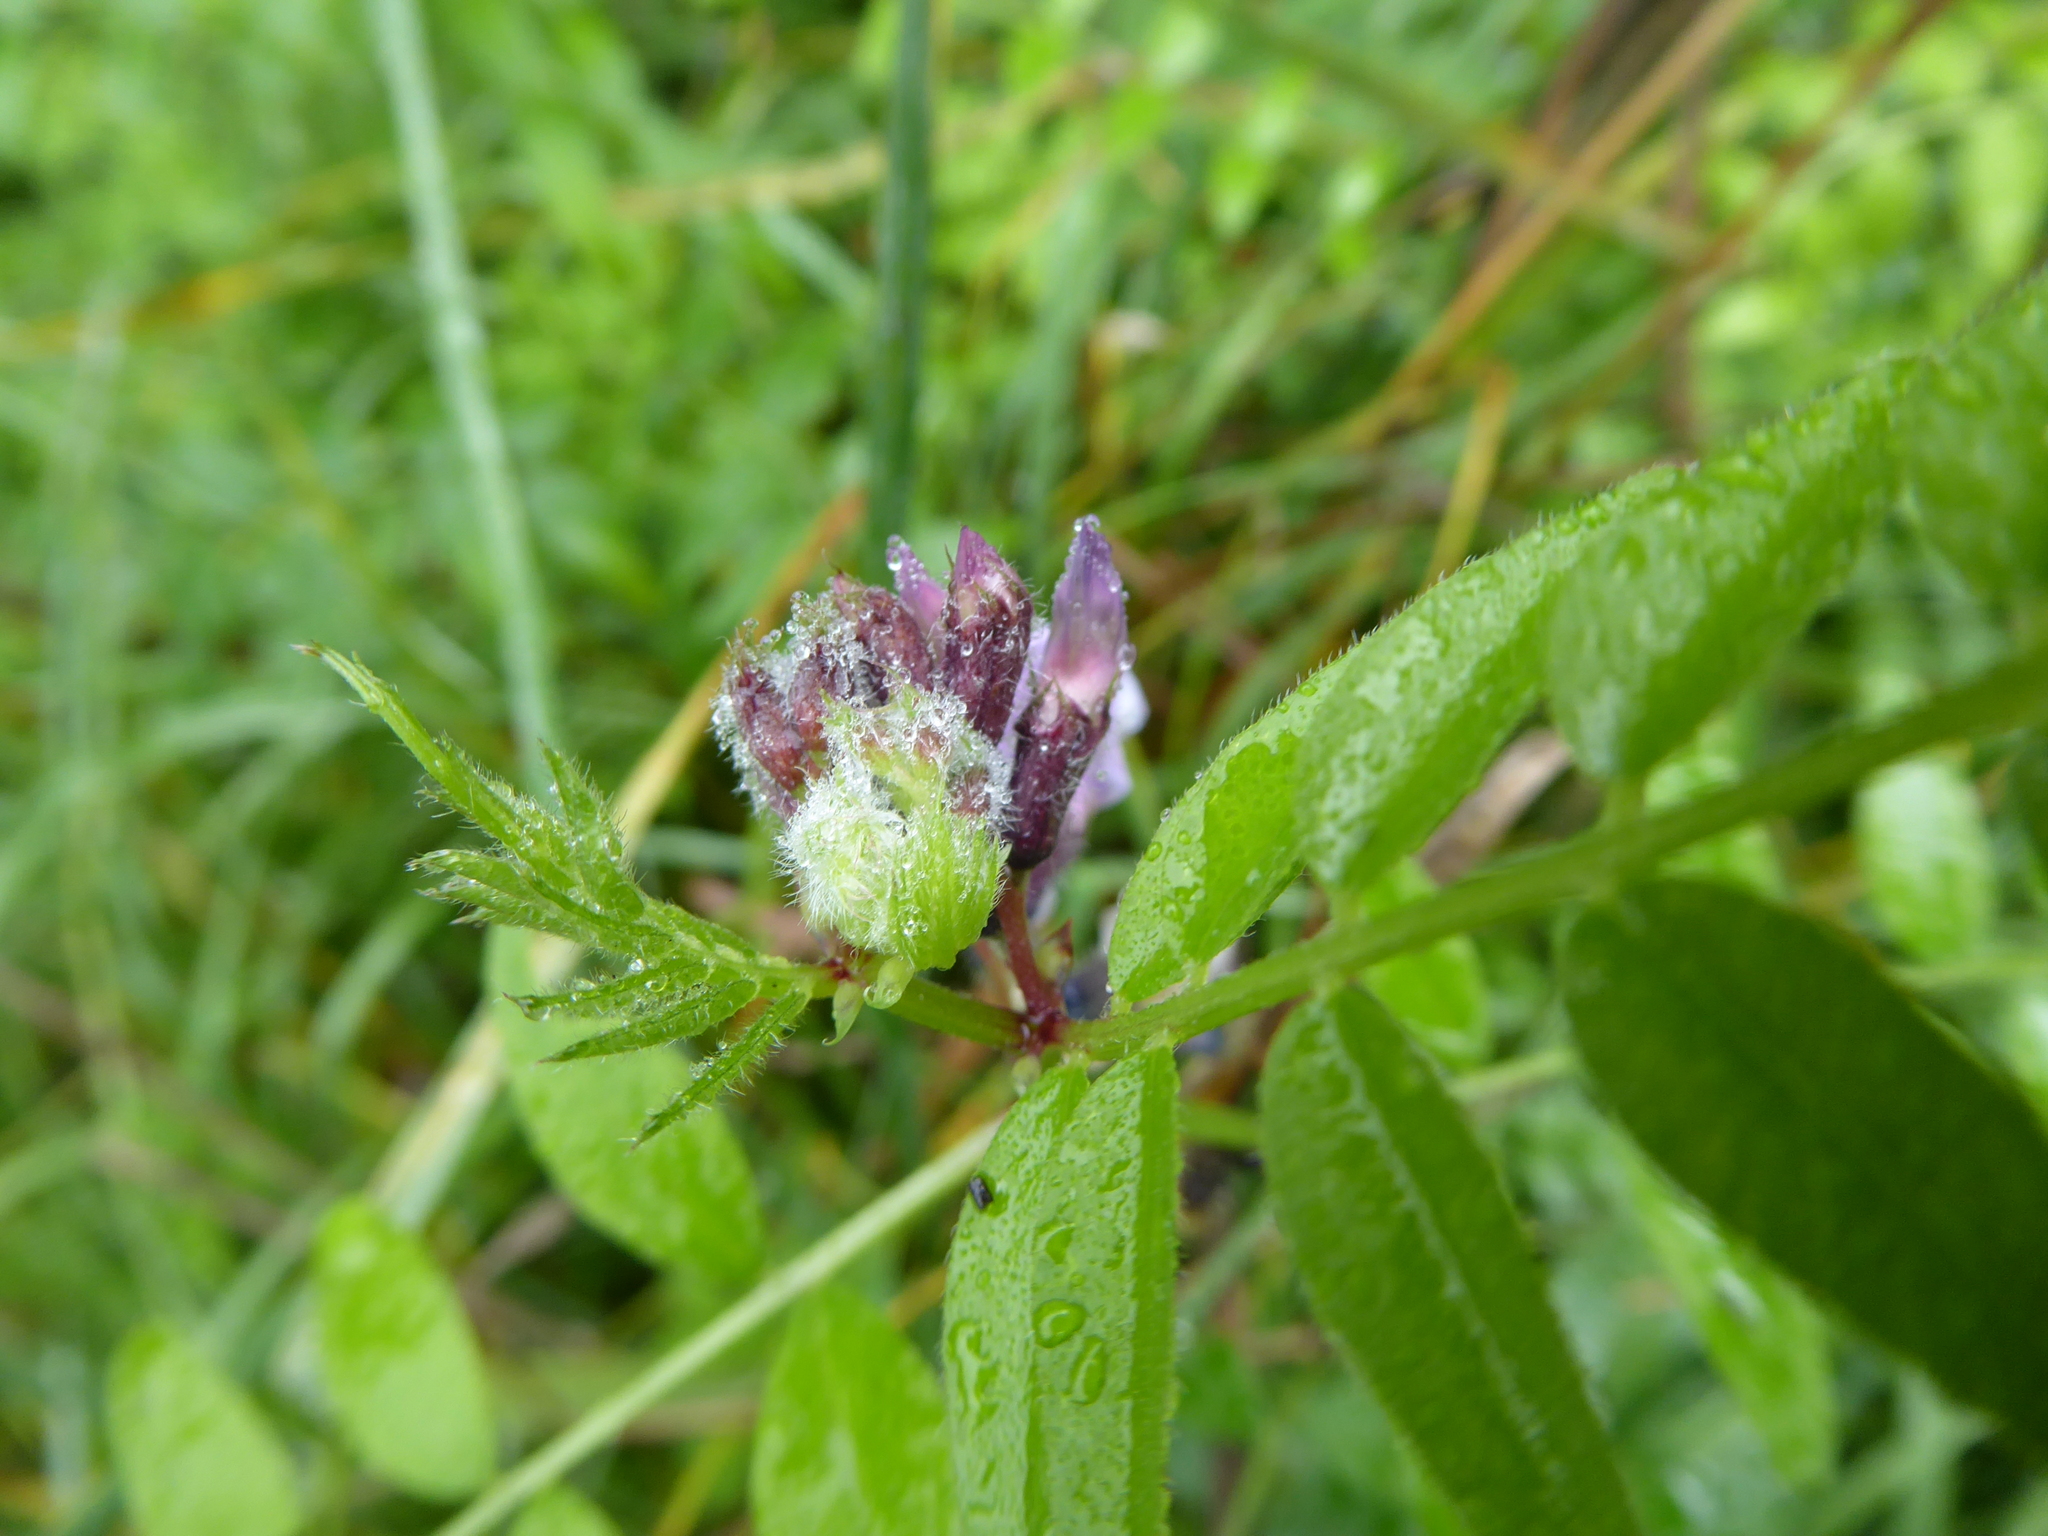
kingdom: Plantae
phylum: Tracheophyta
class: Magnoliopsida
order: Fabales
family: Fabaceae
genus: Vicia
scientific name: Vicia sepium
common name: Bush vetch
